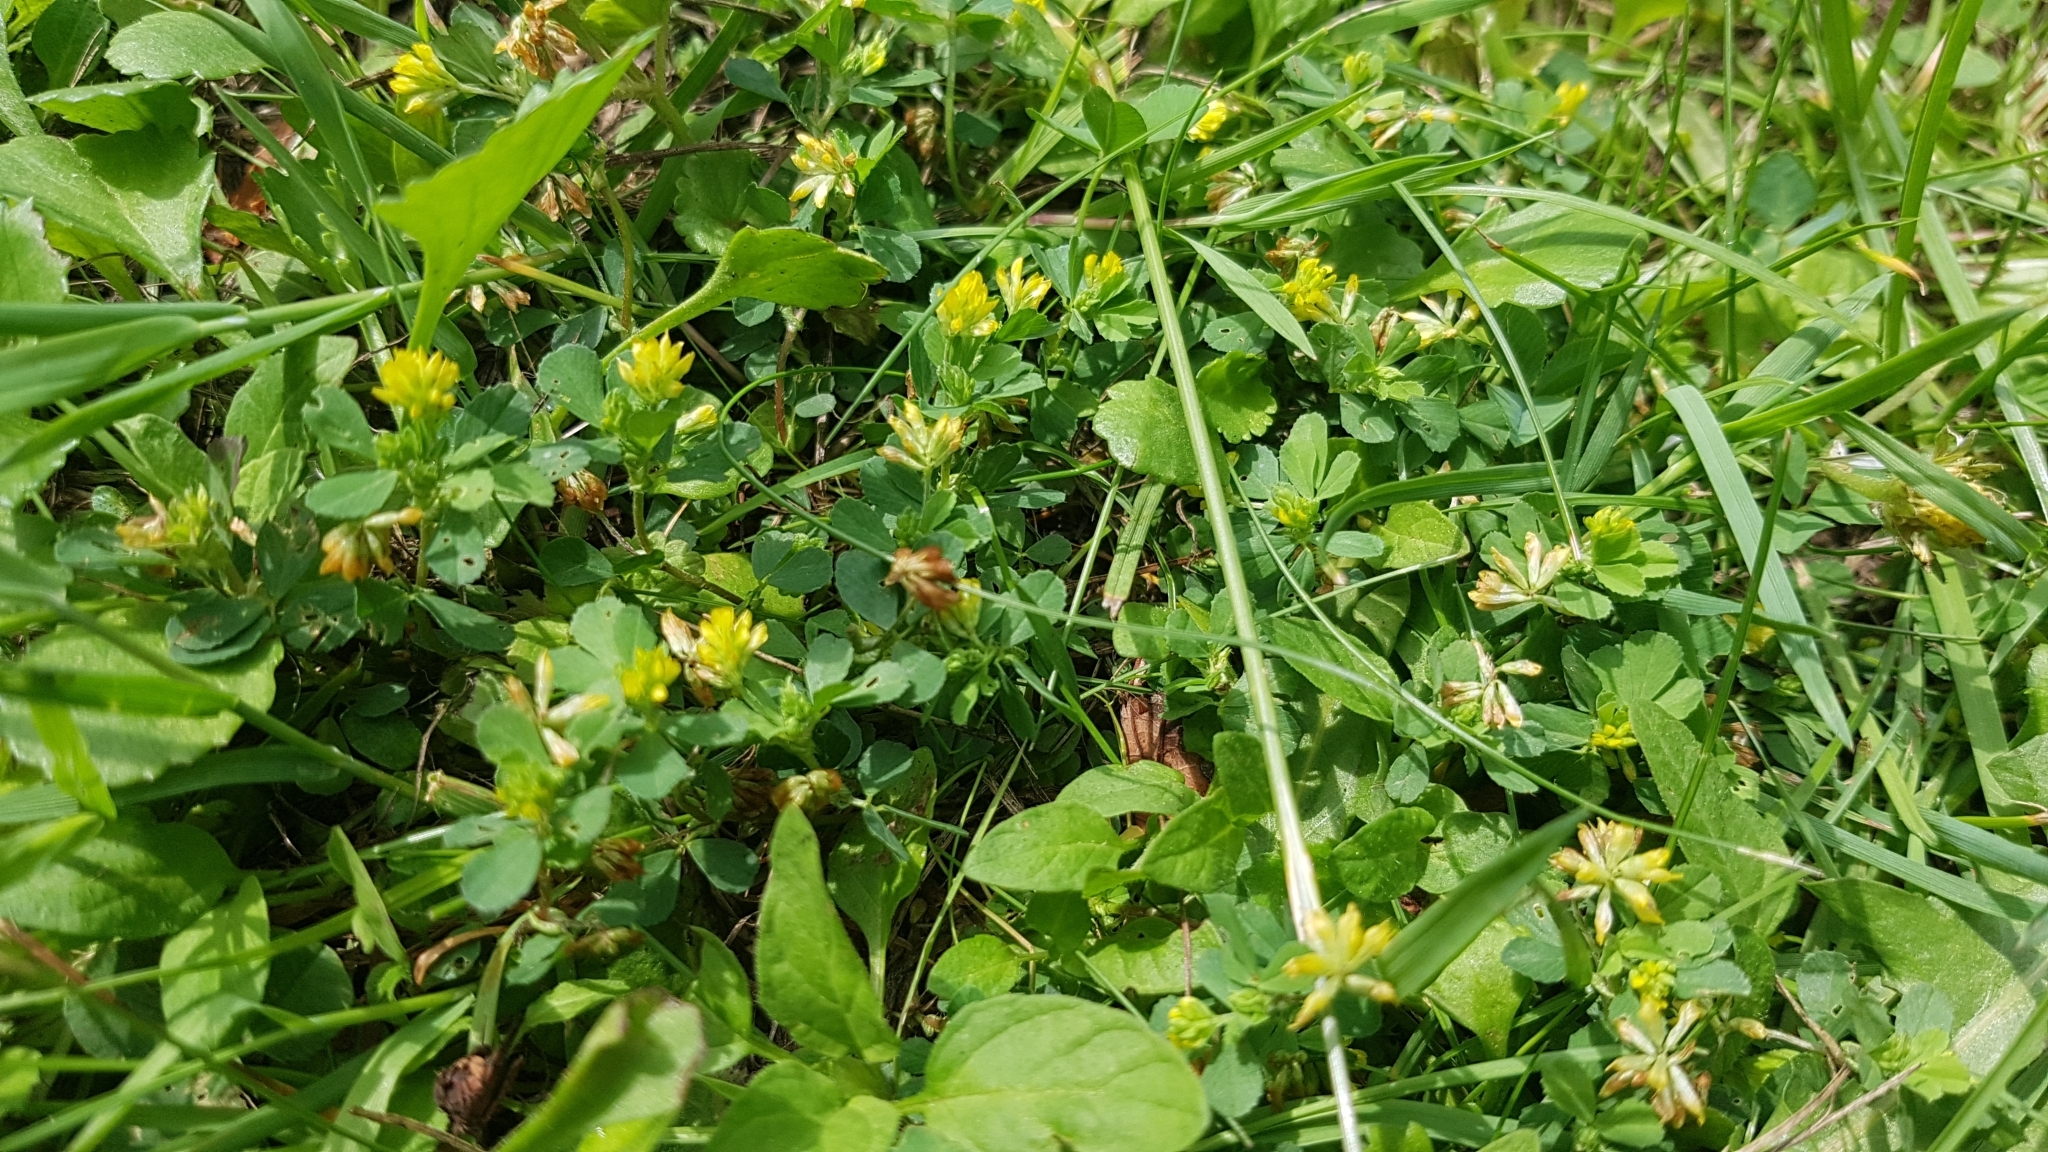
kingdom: Plantae
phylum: Tracheophyta
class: Magnoliopsida
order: Fabales
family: Fabaceae
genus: Trifolium
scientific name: Trifolium dubium
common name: Suckling clover
